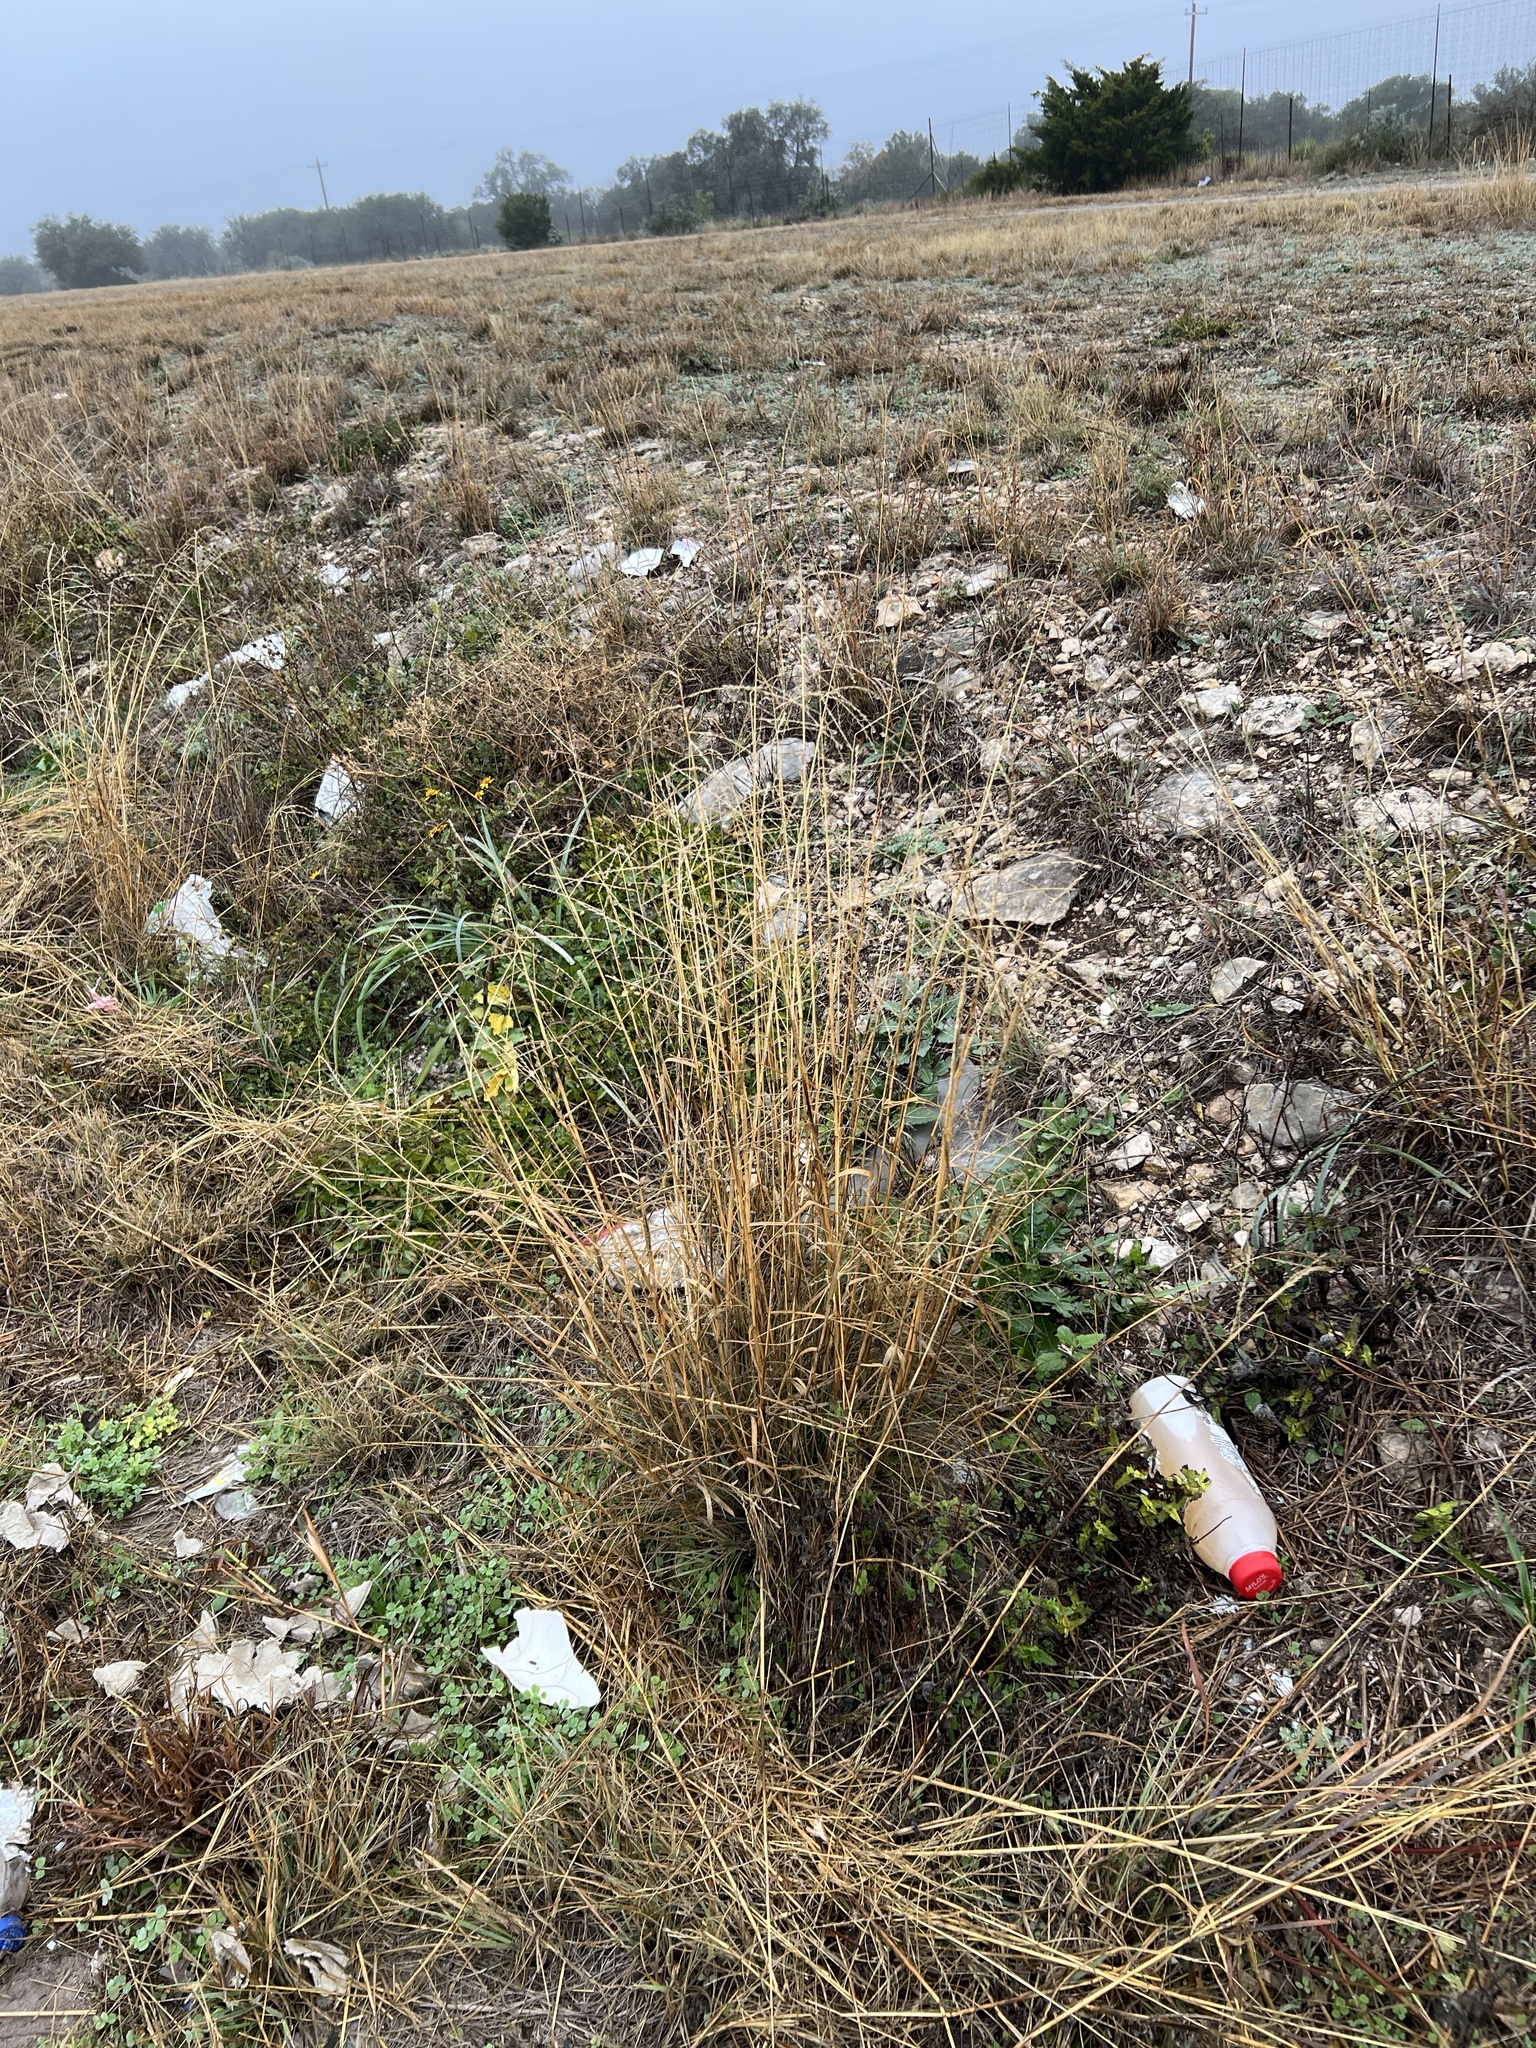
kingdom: Plantae
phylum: Tracheophyta
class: Liliopsida
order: Poales
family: Poaceae
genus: Disakisperma
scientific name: Disakisperma dubium
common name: Green sprangletop
